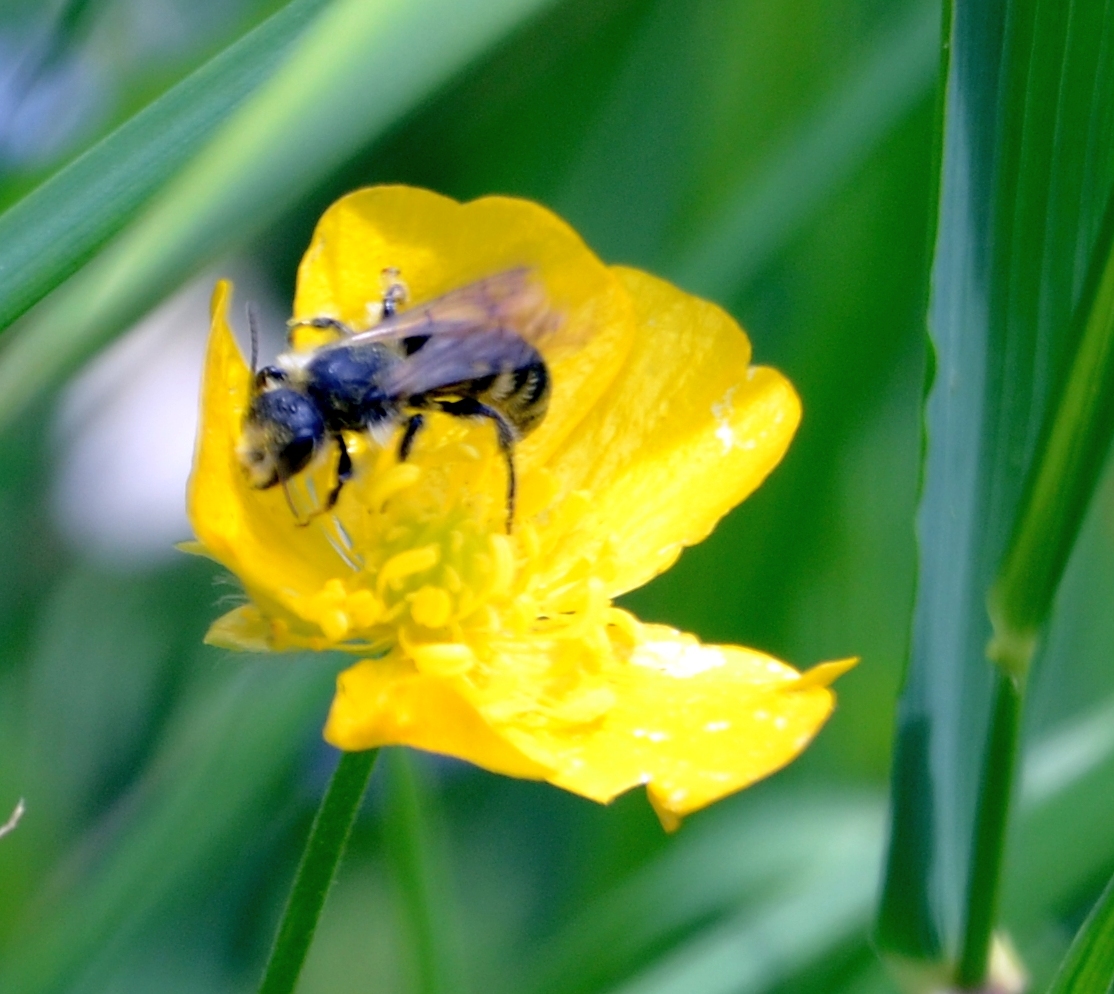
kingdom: Animalia
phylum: Arthropoda
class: Insecta
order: Hymenoptera
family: Megachilidae
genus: Chelostoma
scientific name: Chelostoma florisomne
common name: Sleepy carpenter bee
